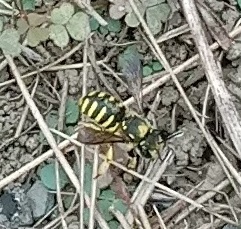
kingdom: Animalia
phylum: Arthropoda
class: Insecta
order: Hymenoptera
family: Megachilidae
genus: Anthidium
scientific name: Anthidium manicatum
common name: Wool carder bee
